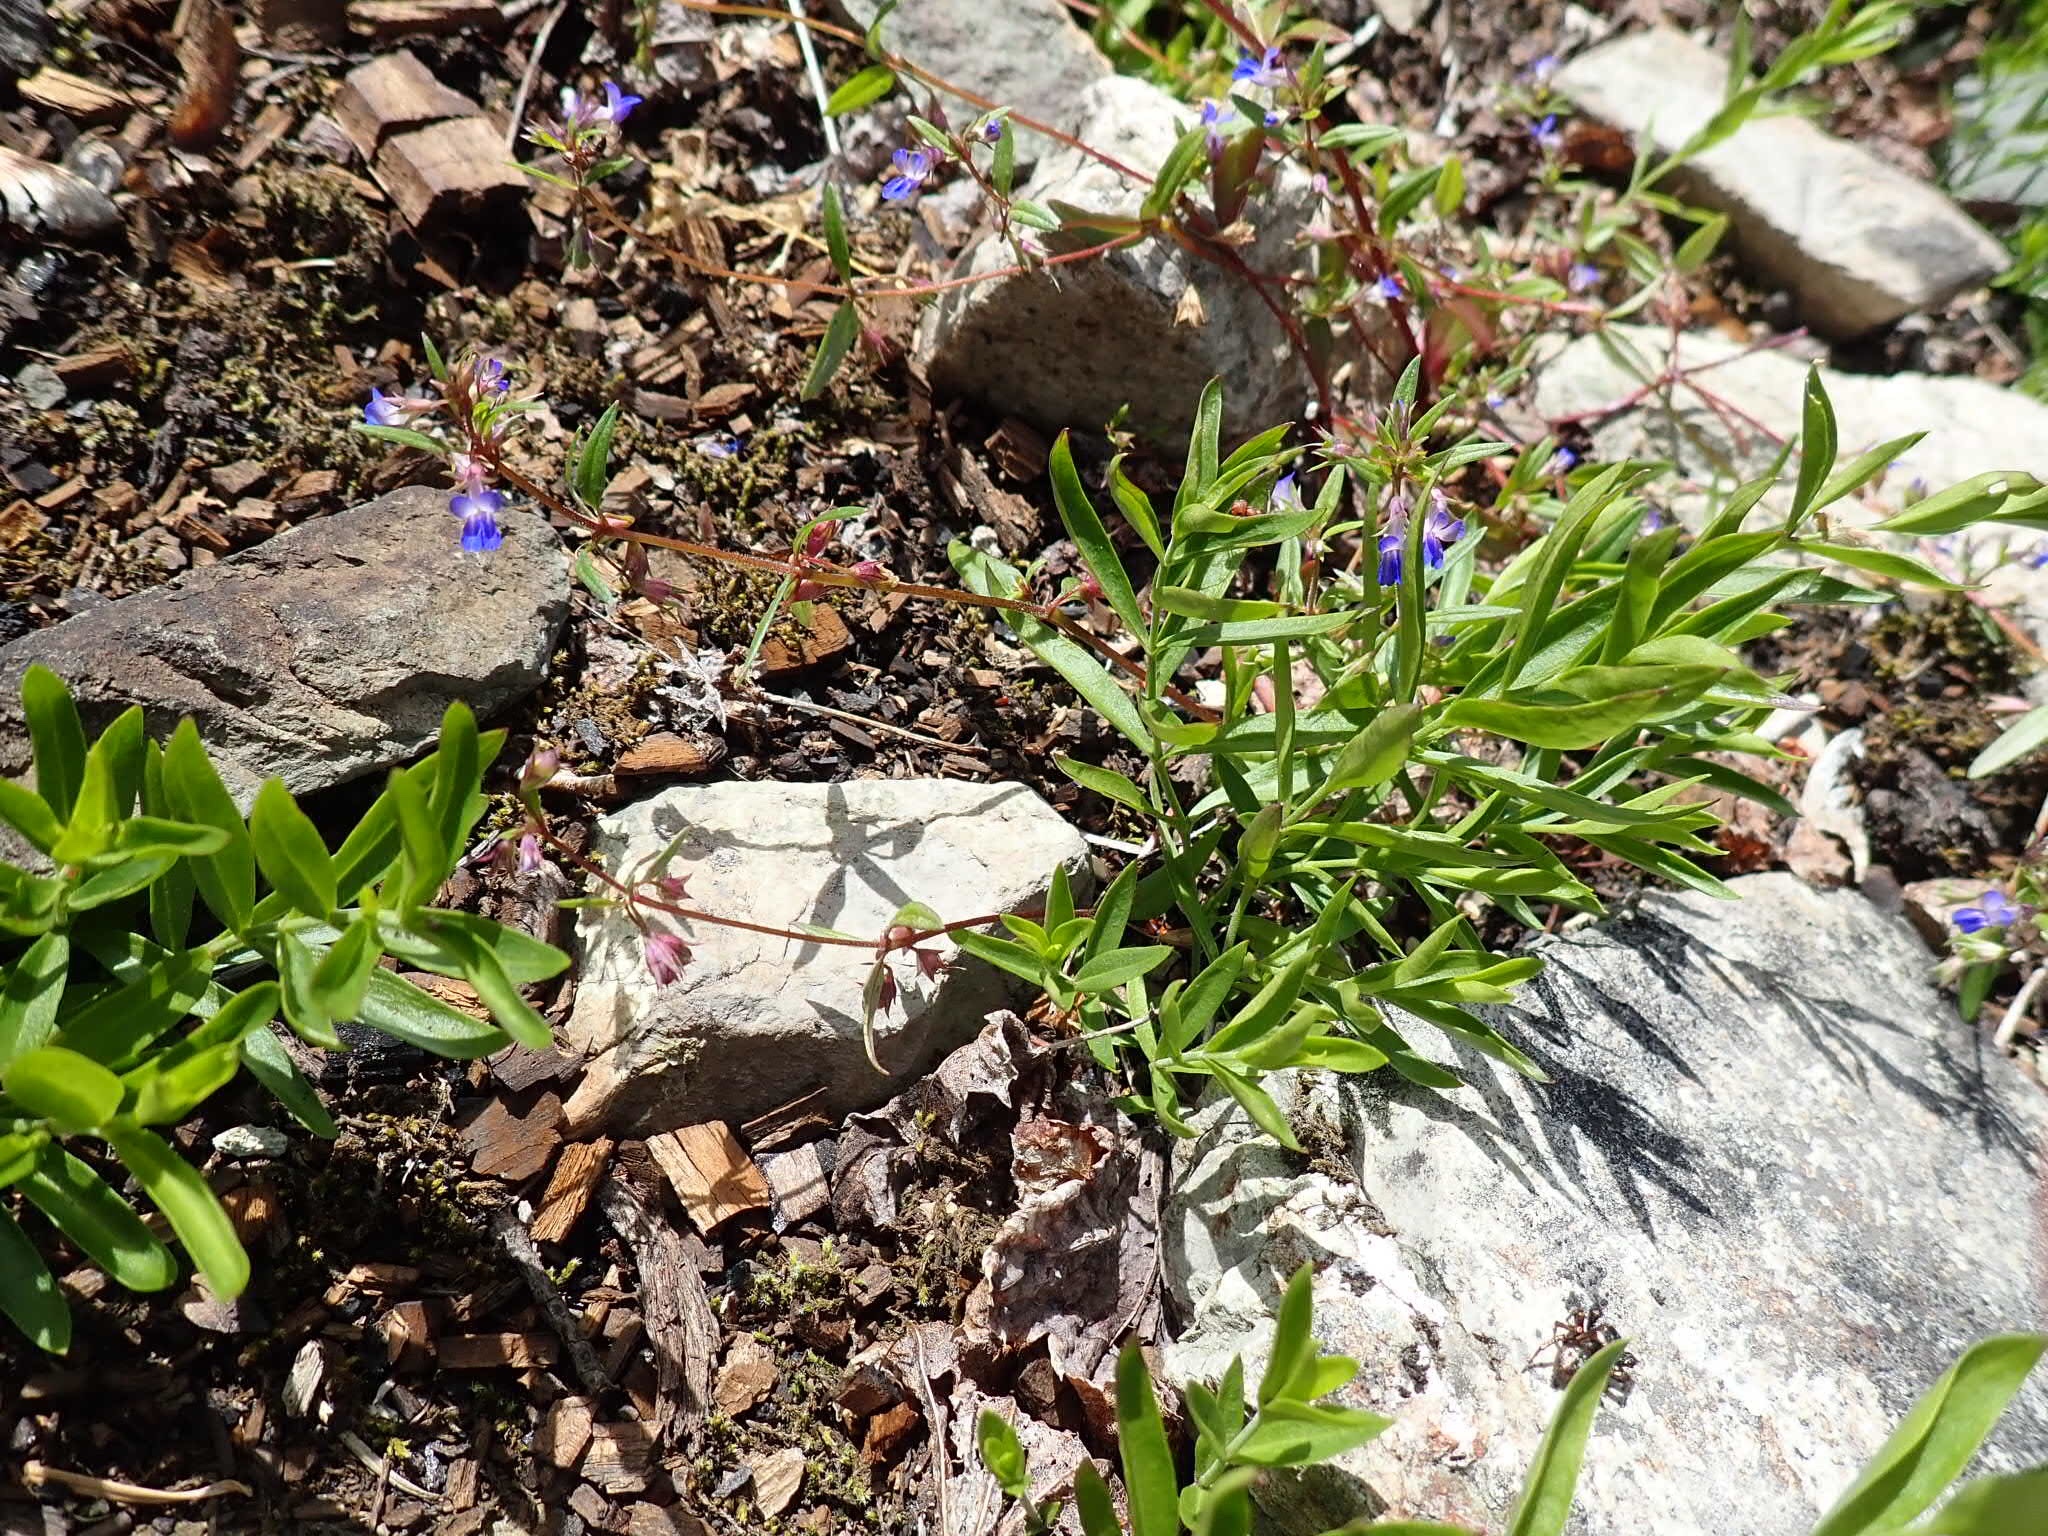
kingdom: Plantae
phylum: Tracheophyta
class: Magnoliopsida
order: Lamiales
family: Plantaginaceae
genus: Collinsia
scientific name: Collinsia parviflora
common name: Blue-lips
